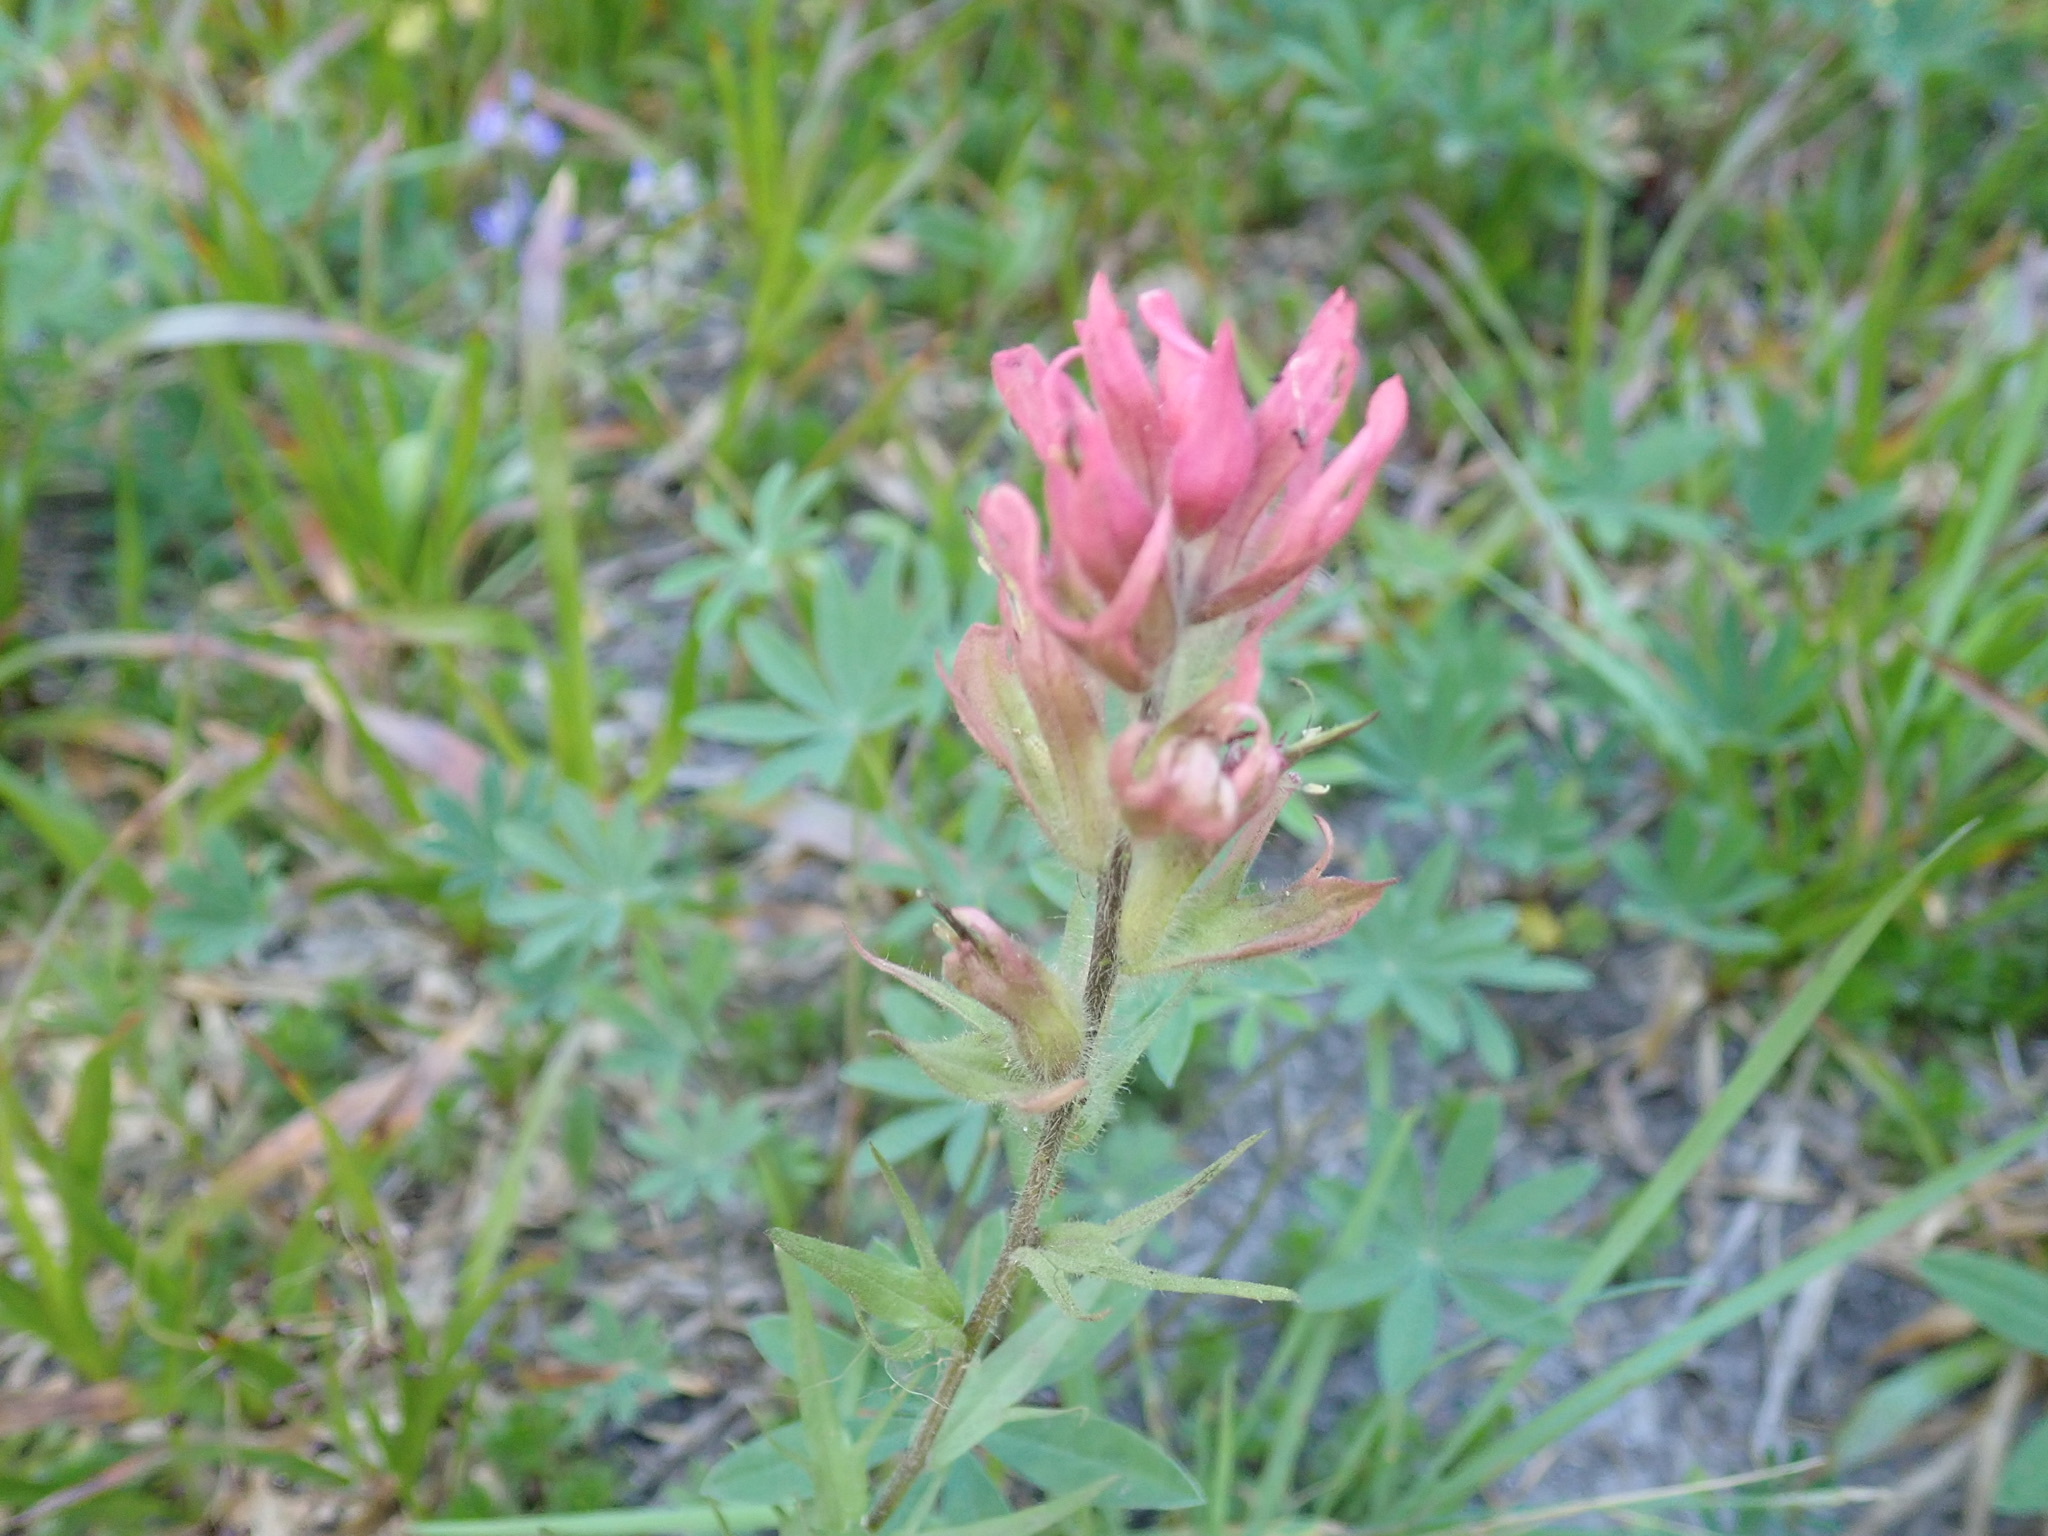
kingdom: Plantae
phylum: Tracheophyta
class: Magnoliopsida
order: Lamiales
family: Orobanchaceae
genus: Castilleja
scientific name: Castilleja parviflora
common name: Mountain paintbrush
